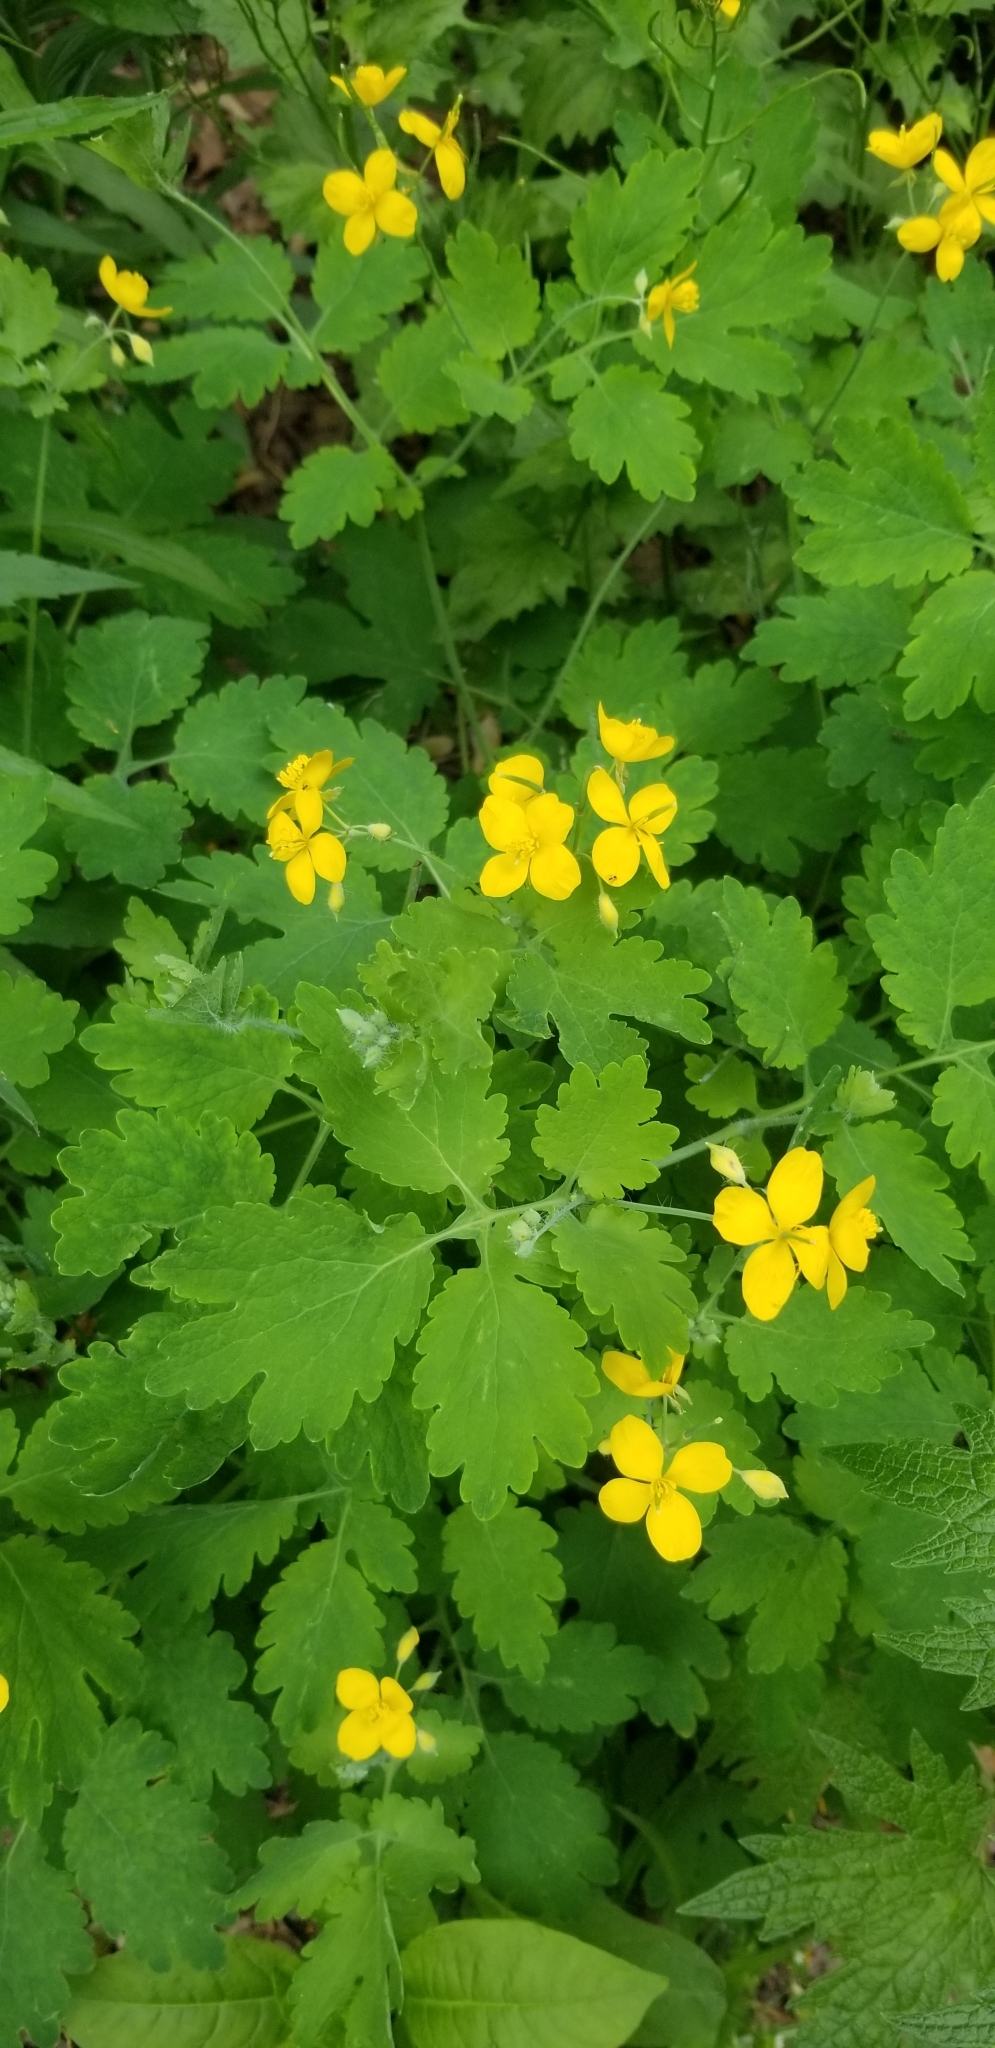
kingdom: Plantae
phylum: Tracheophyta
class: Magnoliopsida
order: Ranunculales
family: Papaveraceae
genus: Chelidonium
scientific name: Chelidonium majus
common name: Greater celandine
